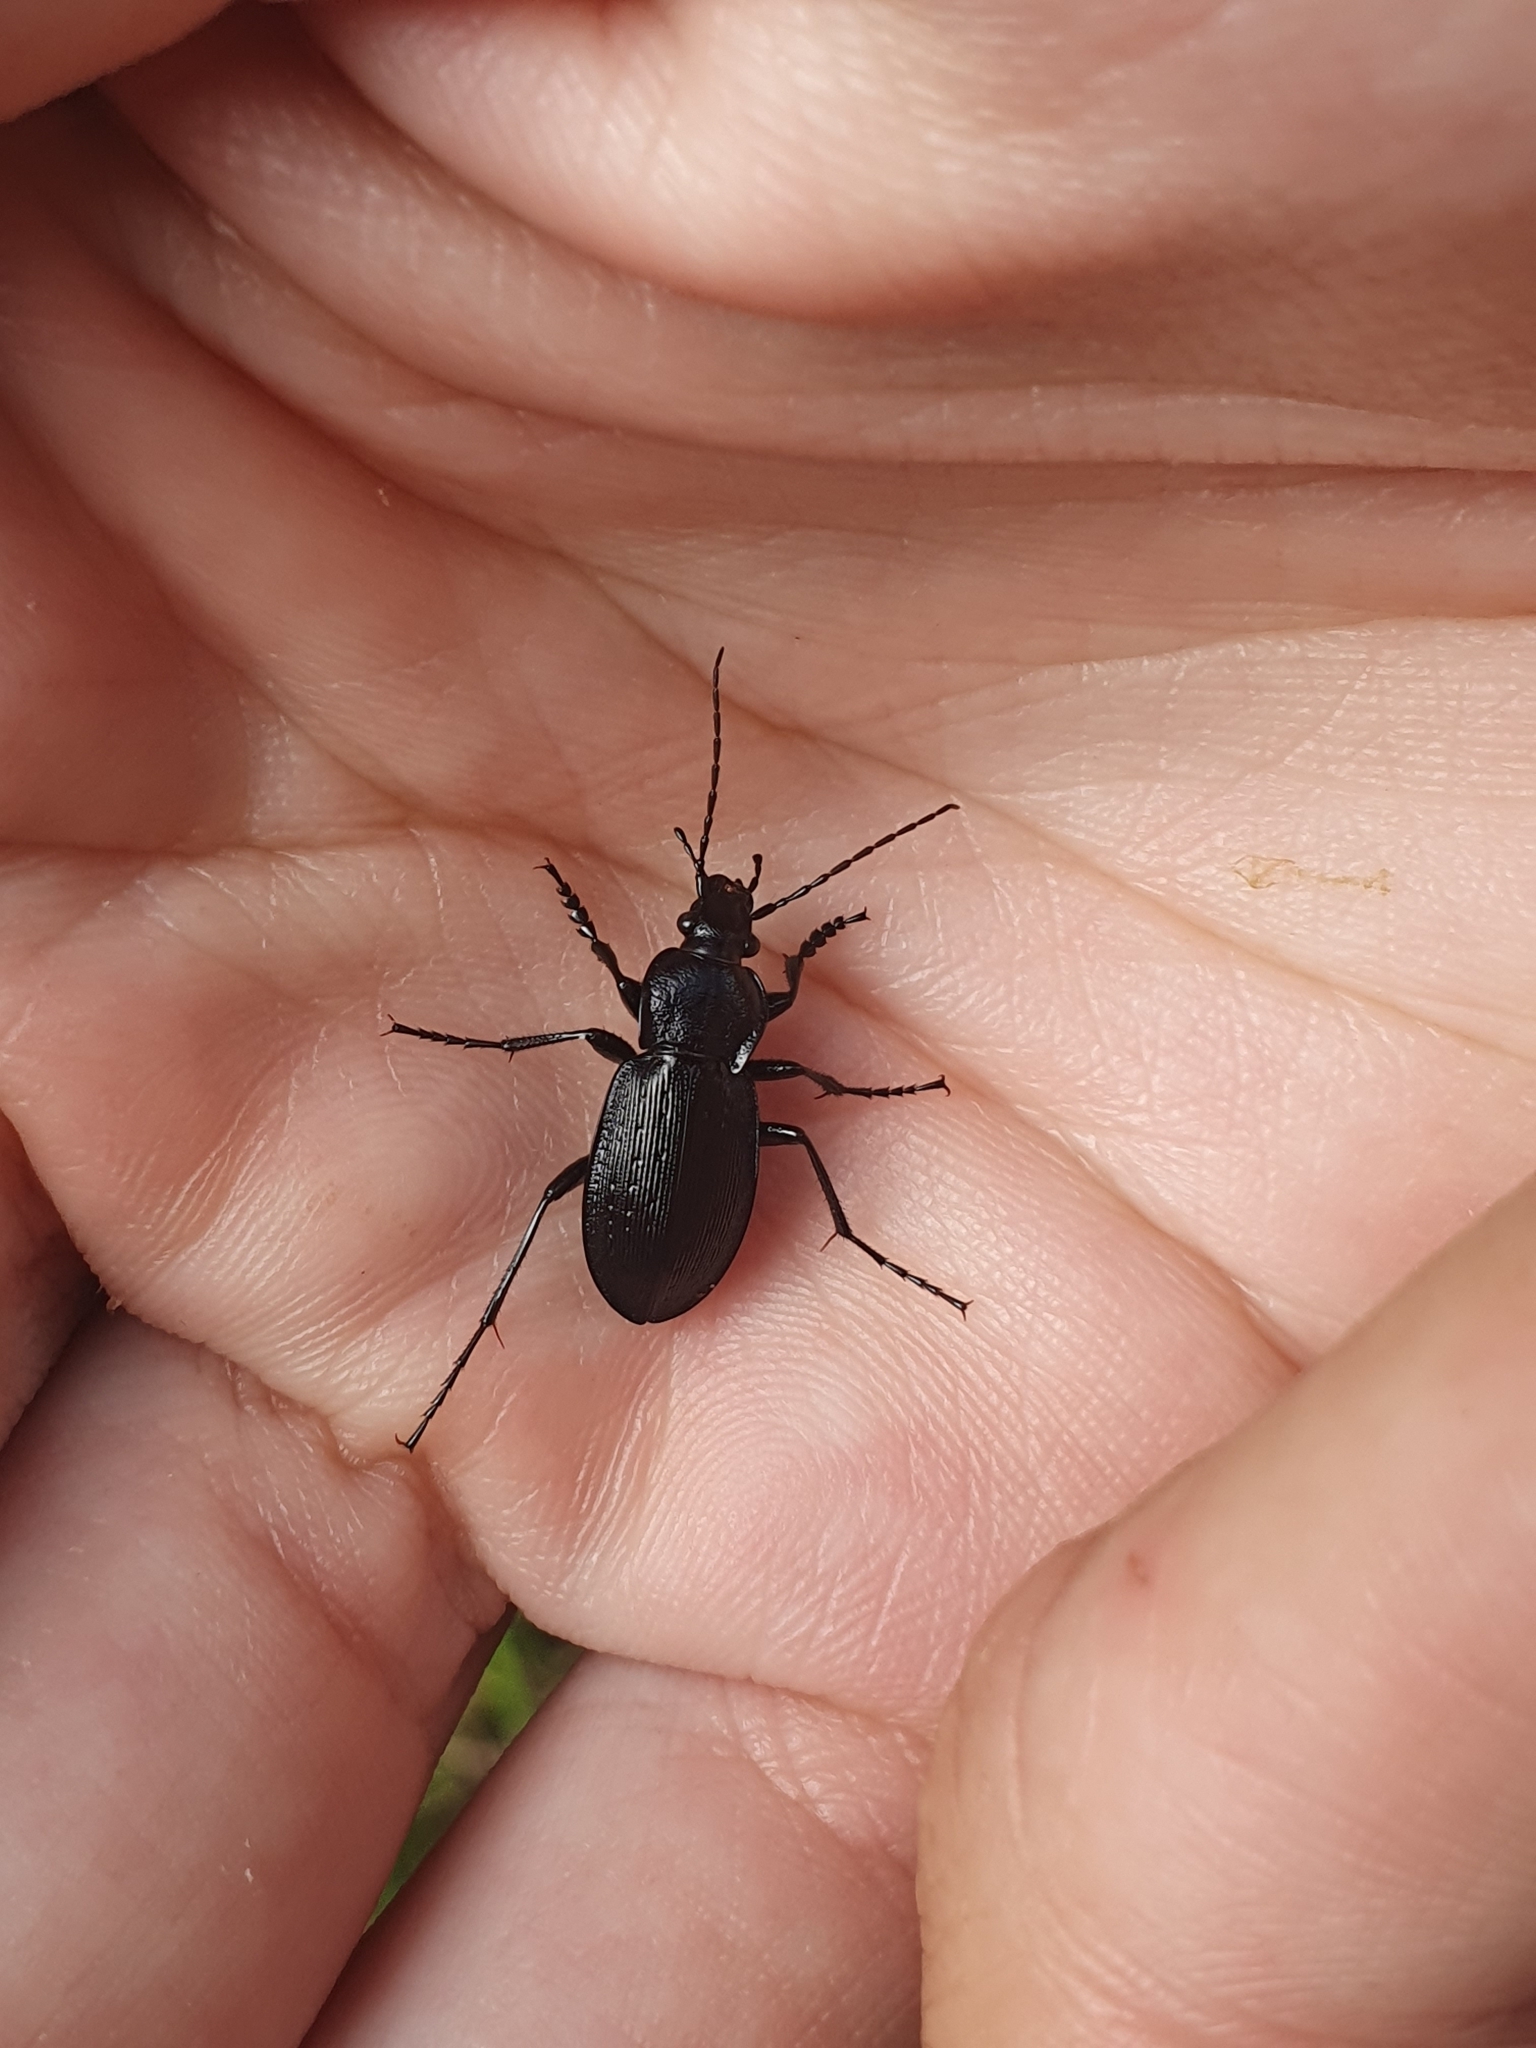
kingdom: Animalia
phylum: Arthropoda
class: Insecta
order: Coleoptera
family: Carabidae
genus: Carabus
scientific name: Carabus deyrolei
